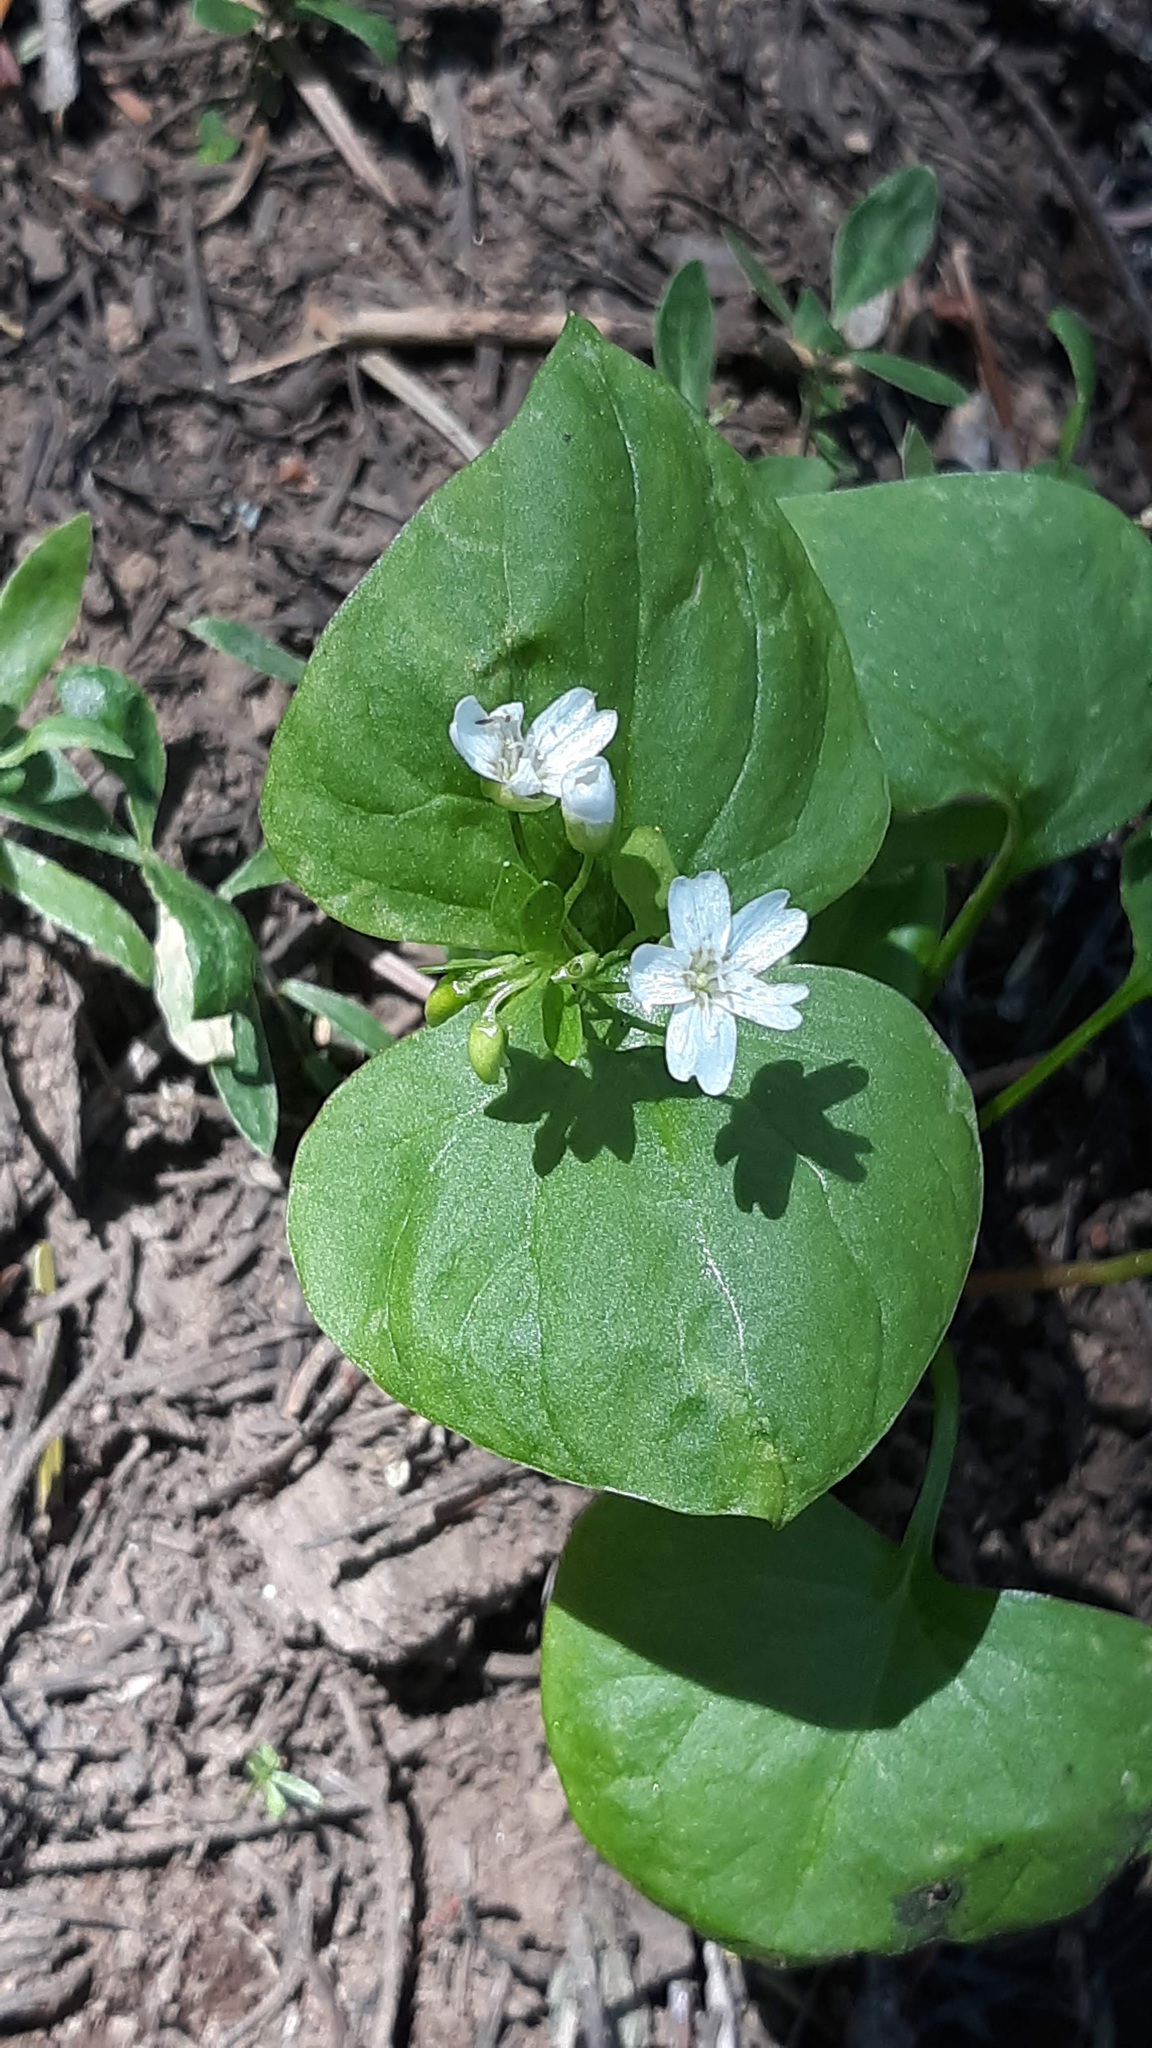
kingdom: Plantae
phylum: Tracheophyta
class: Magnoliopsida
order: Caryophyllales
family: Montiaceae
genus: Claytonia
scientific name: Claytonia sibirica
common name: Pink purslane
